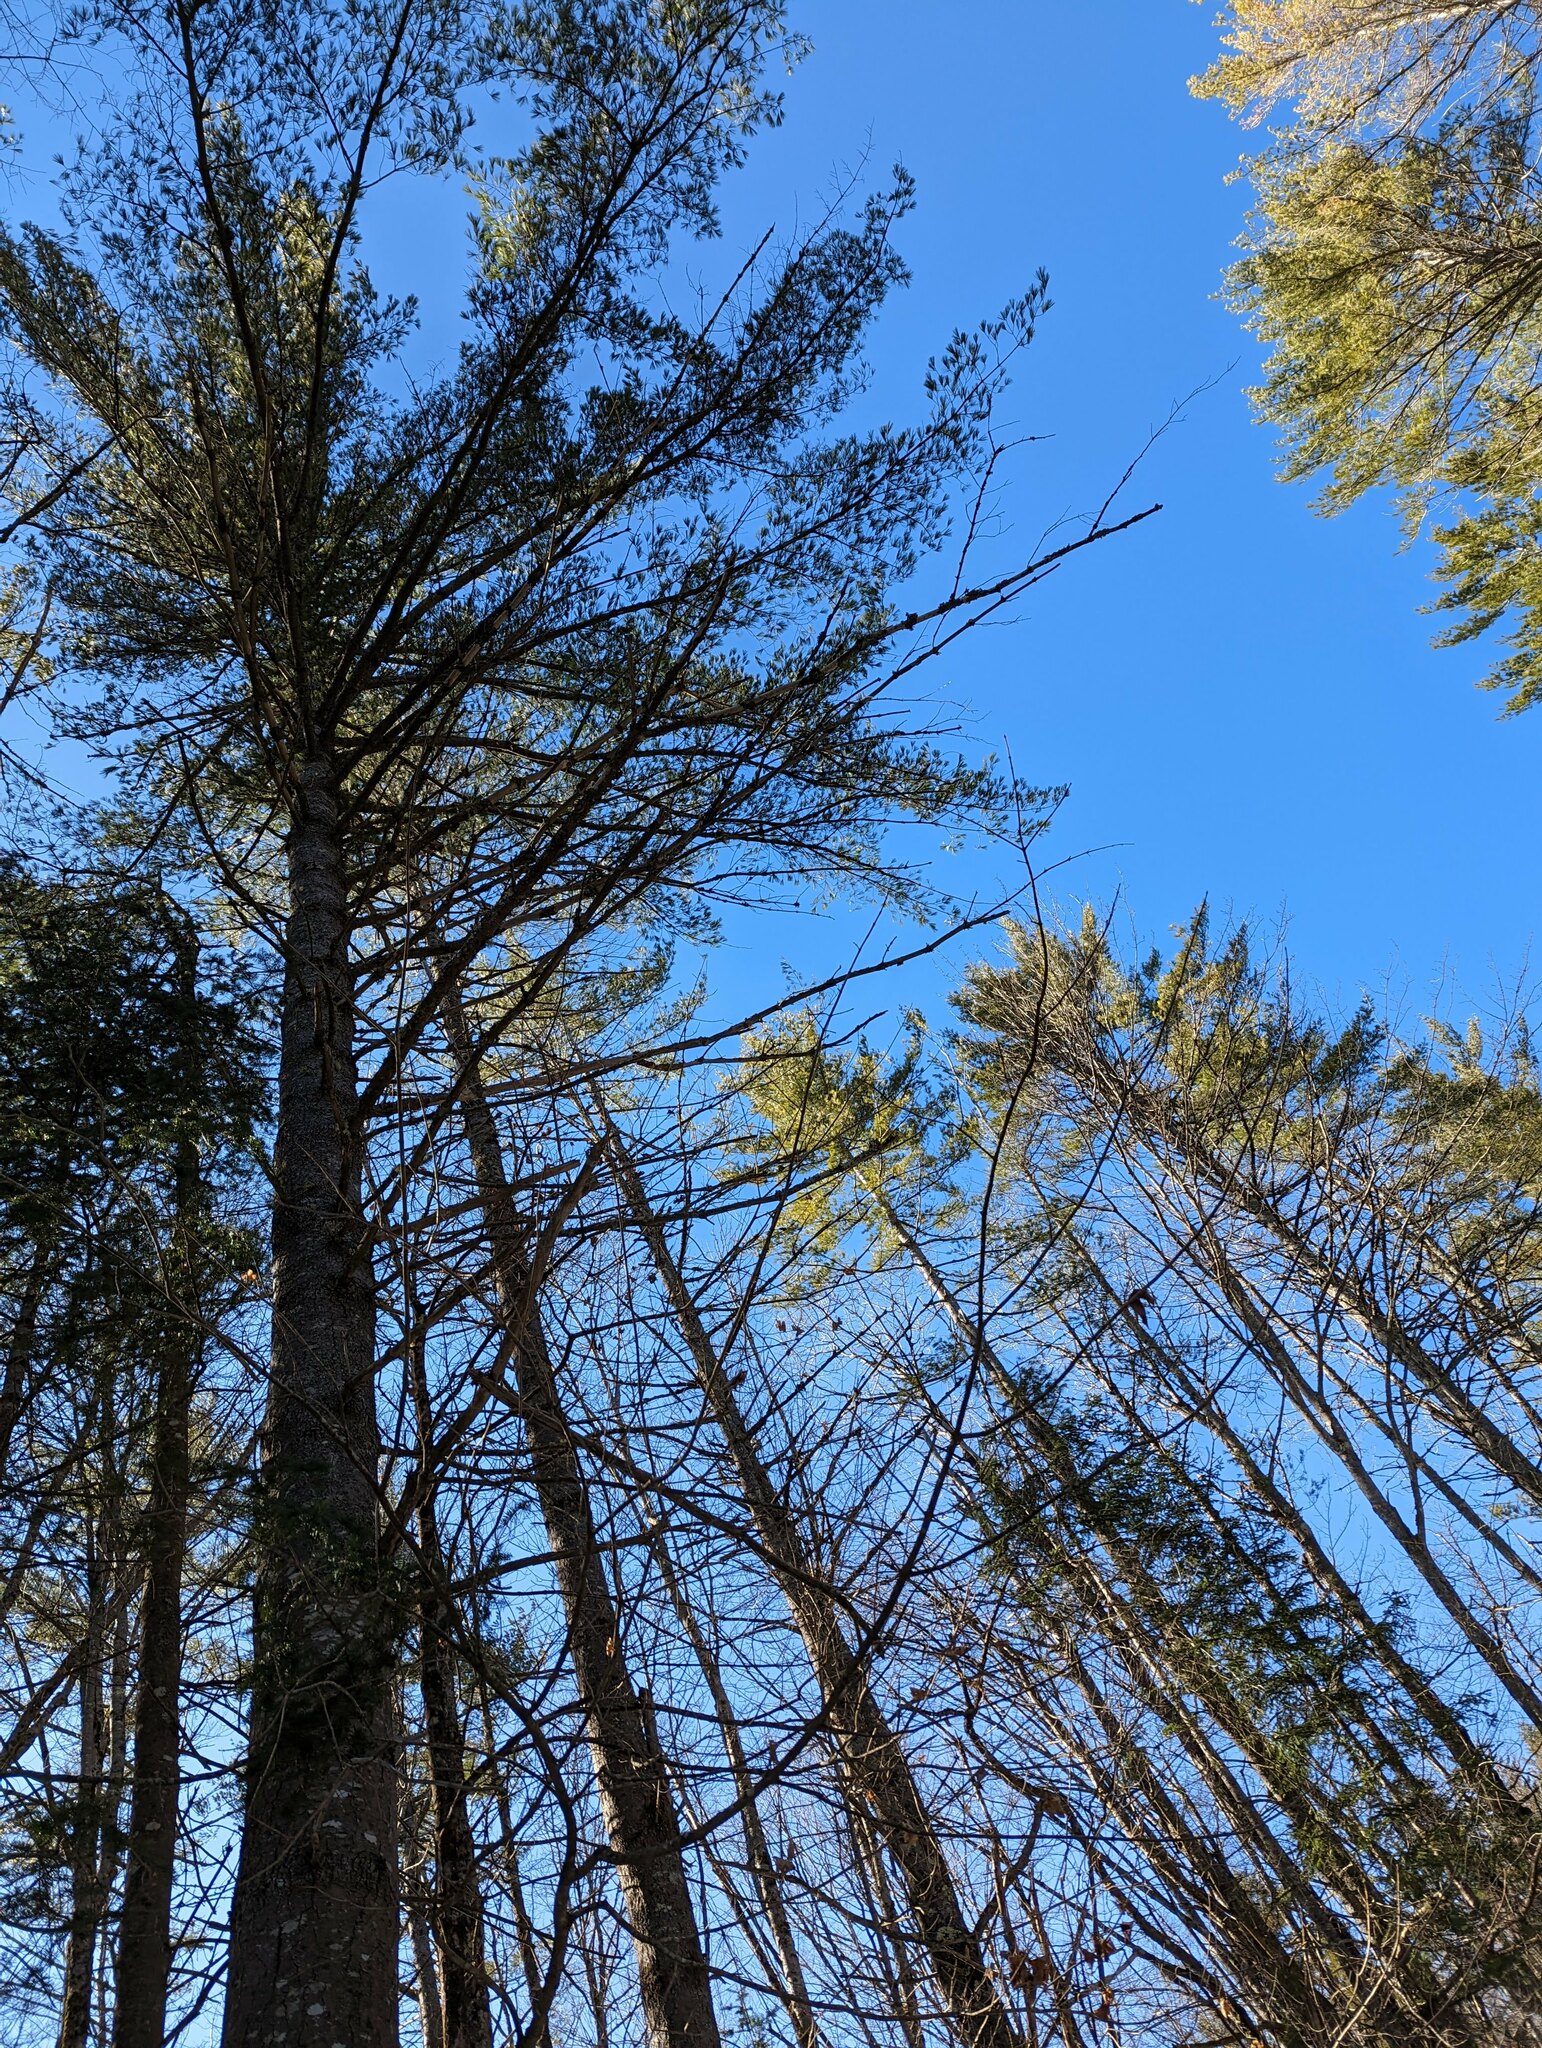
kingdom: Plantae
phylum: Tracheophyta
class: Pinopsida
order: Pinales
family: Pinaceae
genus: Pinus
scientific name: Pinus strobus
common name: Weymouth pine
